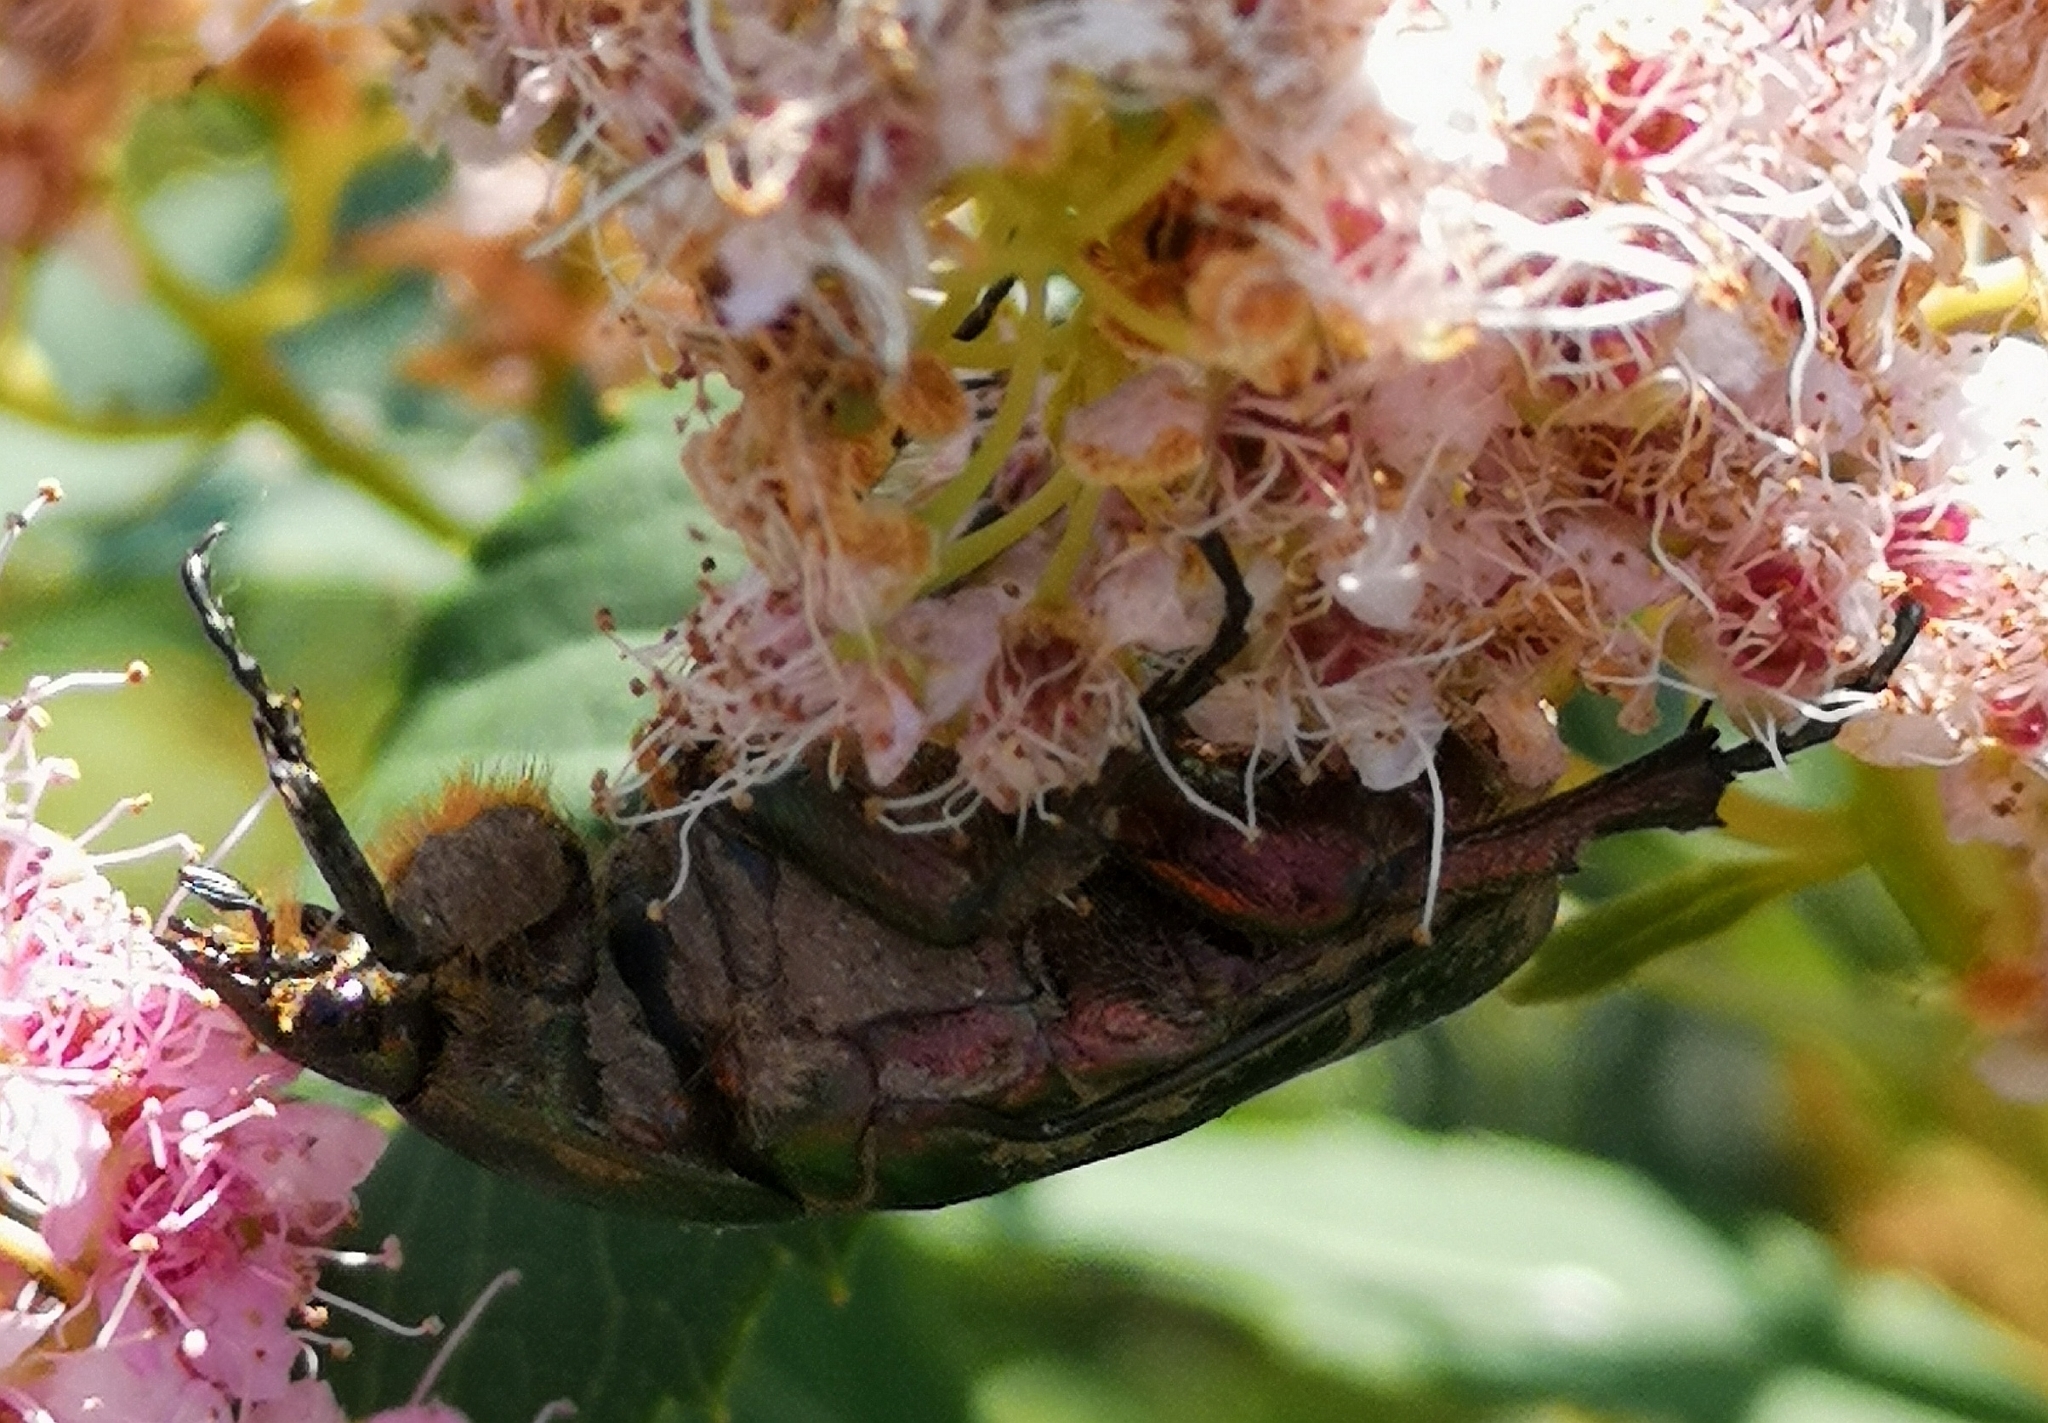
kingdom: Animalia
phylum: Arthropoda
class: Insecta
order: Coleoptera
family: Scarabaeidae
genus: Cetonia
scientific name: Cetonia aurata
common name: Rose chafer
